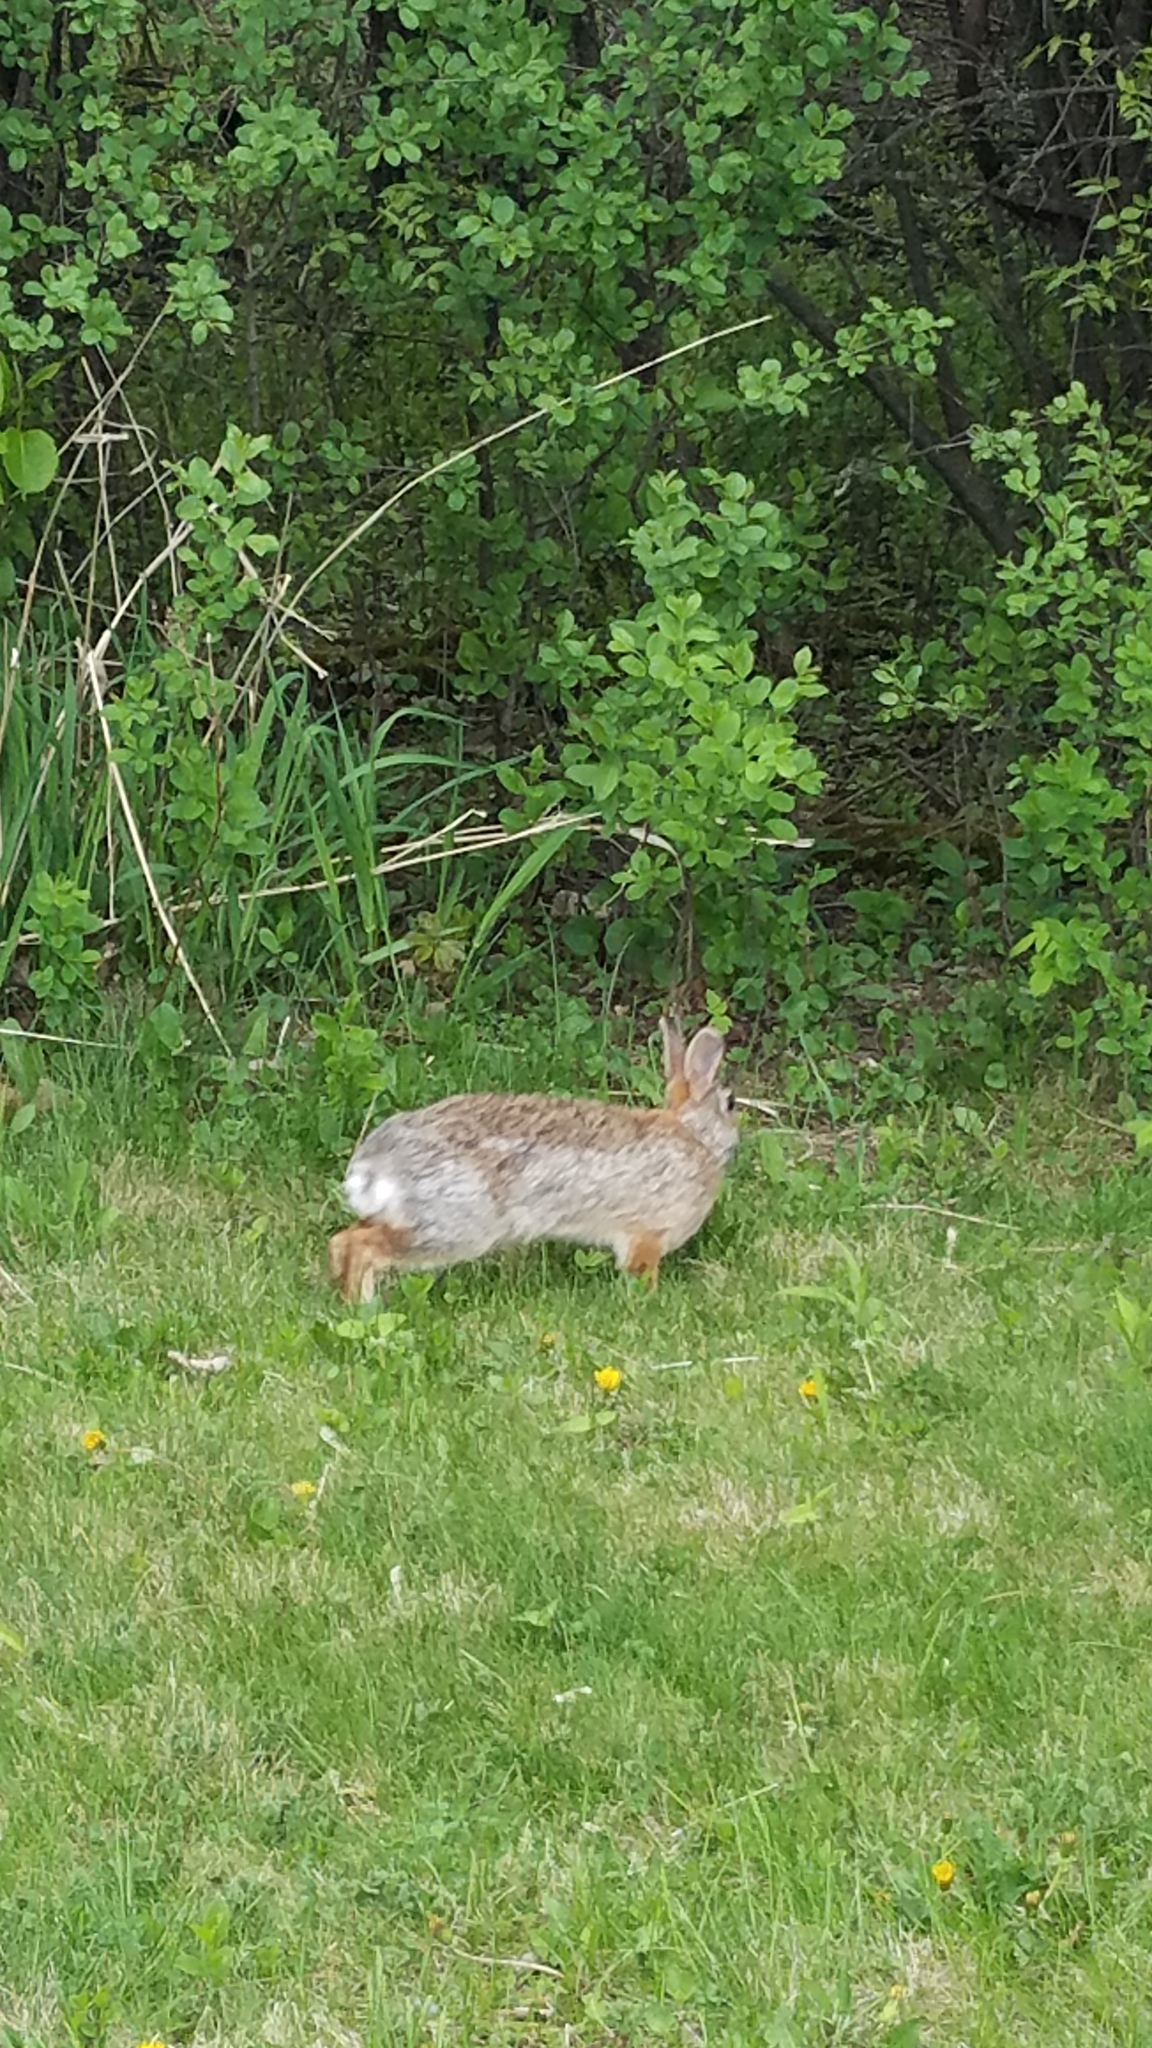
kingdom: Animalia
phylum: Chordata
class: Mammalia
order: Lagomorpha
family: Leporidae
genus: Sylvilagus
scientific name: Sylvilagus floridanus
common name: Eastern cottontail
